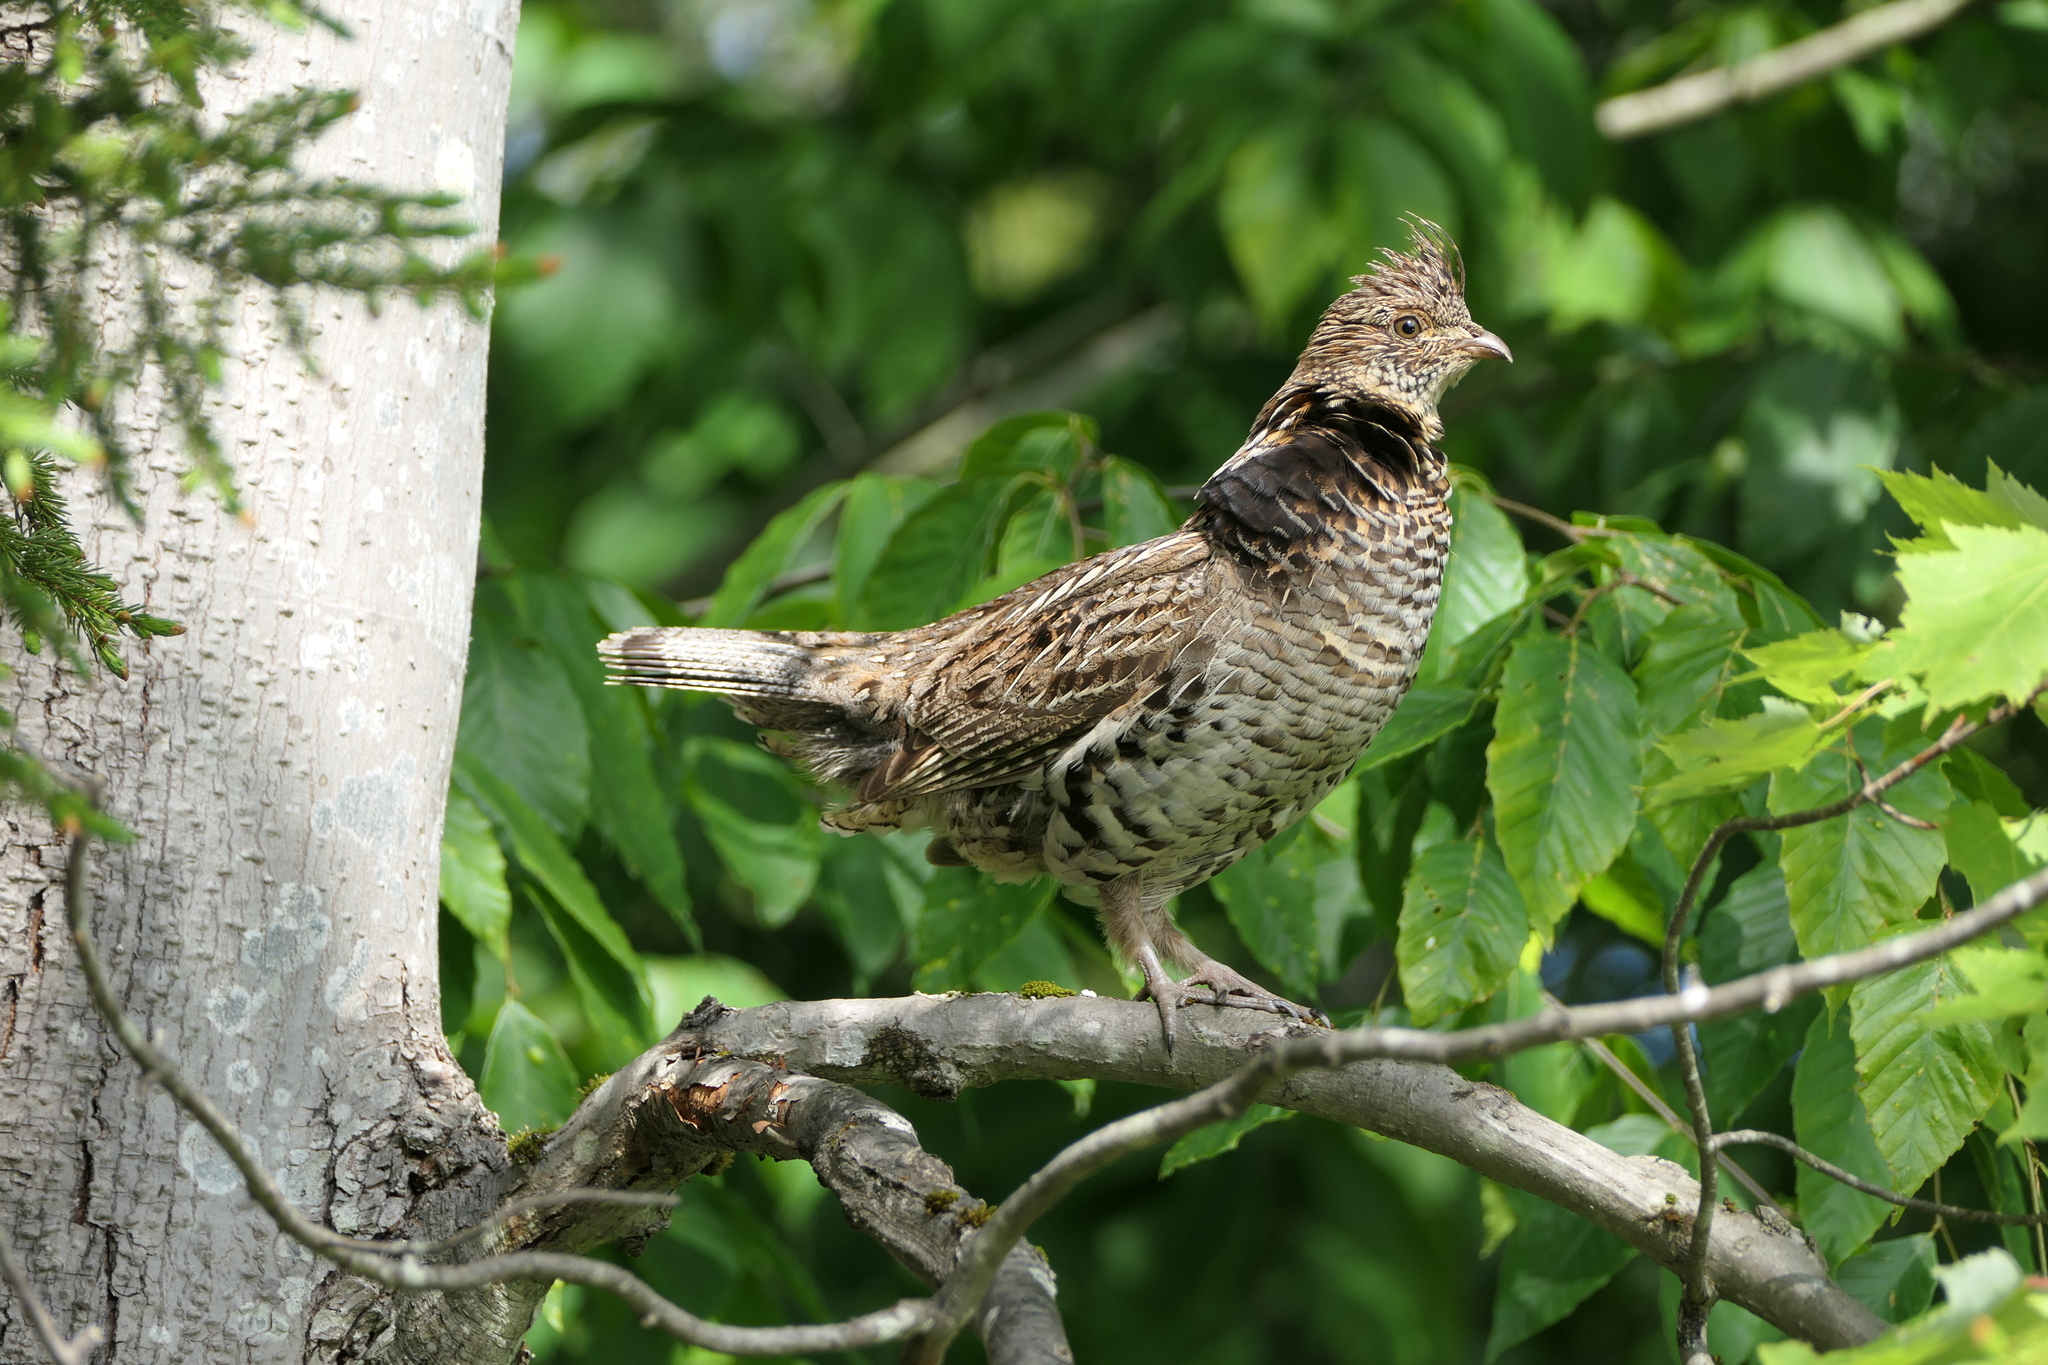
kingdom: Animalia
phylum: Chordata
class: Aves
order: Galliformes
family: Phasianidae
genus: Bonasa
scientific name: Bonasa umbellus
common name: Ruffed grouse
